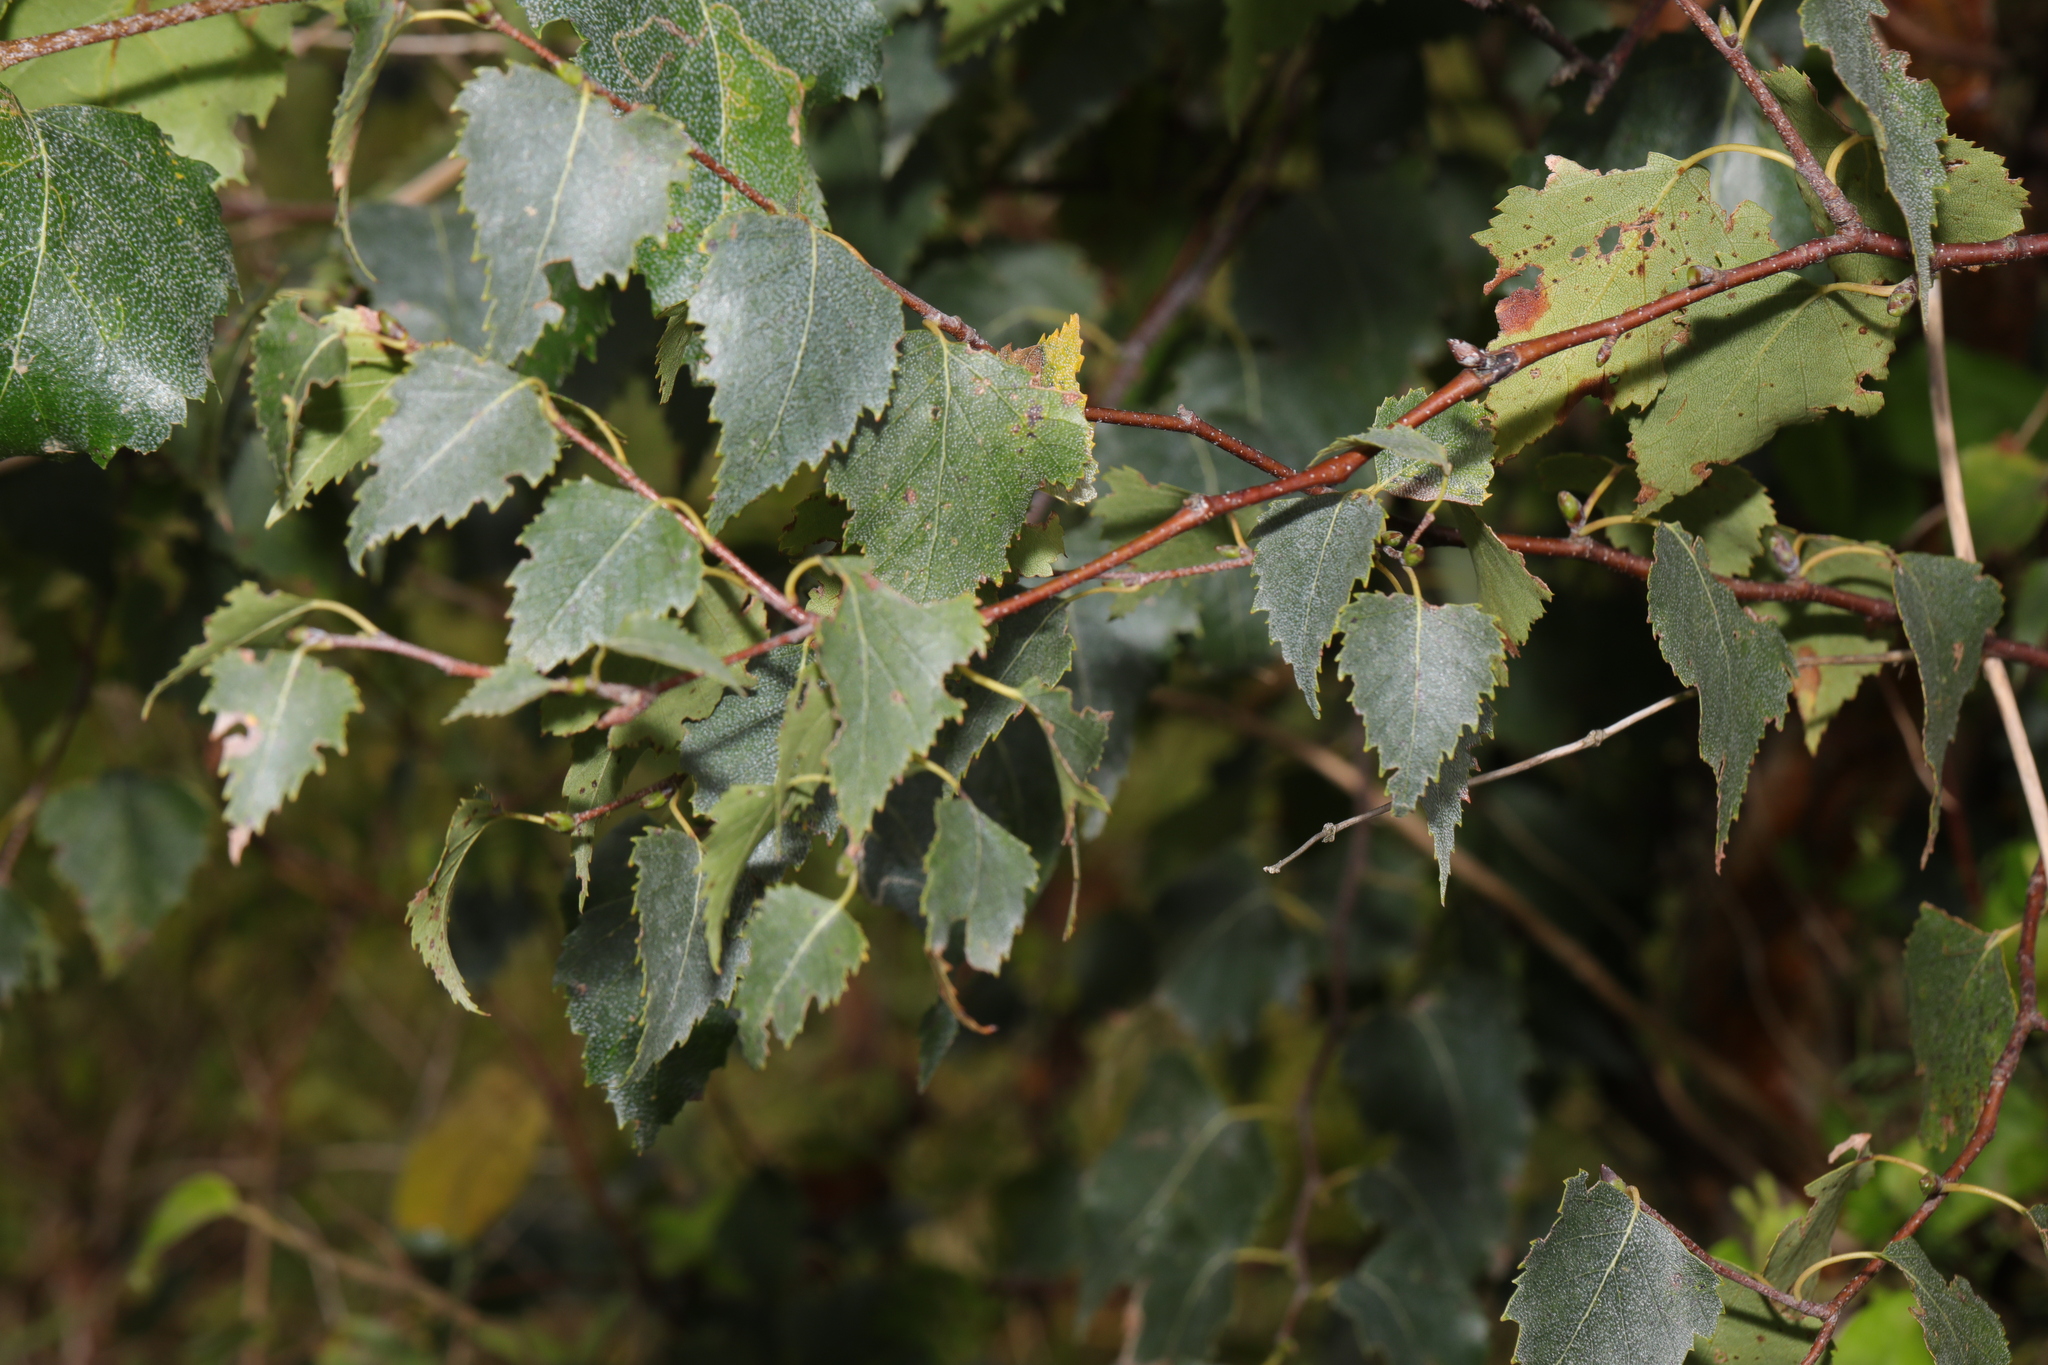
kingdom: Plantae
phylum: Tracheophyta
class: Magnoliopsida
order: Fagales
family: Betulaceae
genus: Betula
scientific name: Betula pendula
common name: Silver birch
